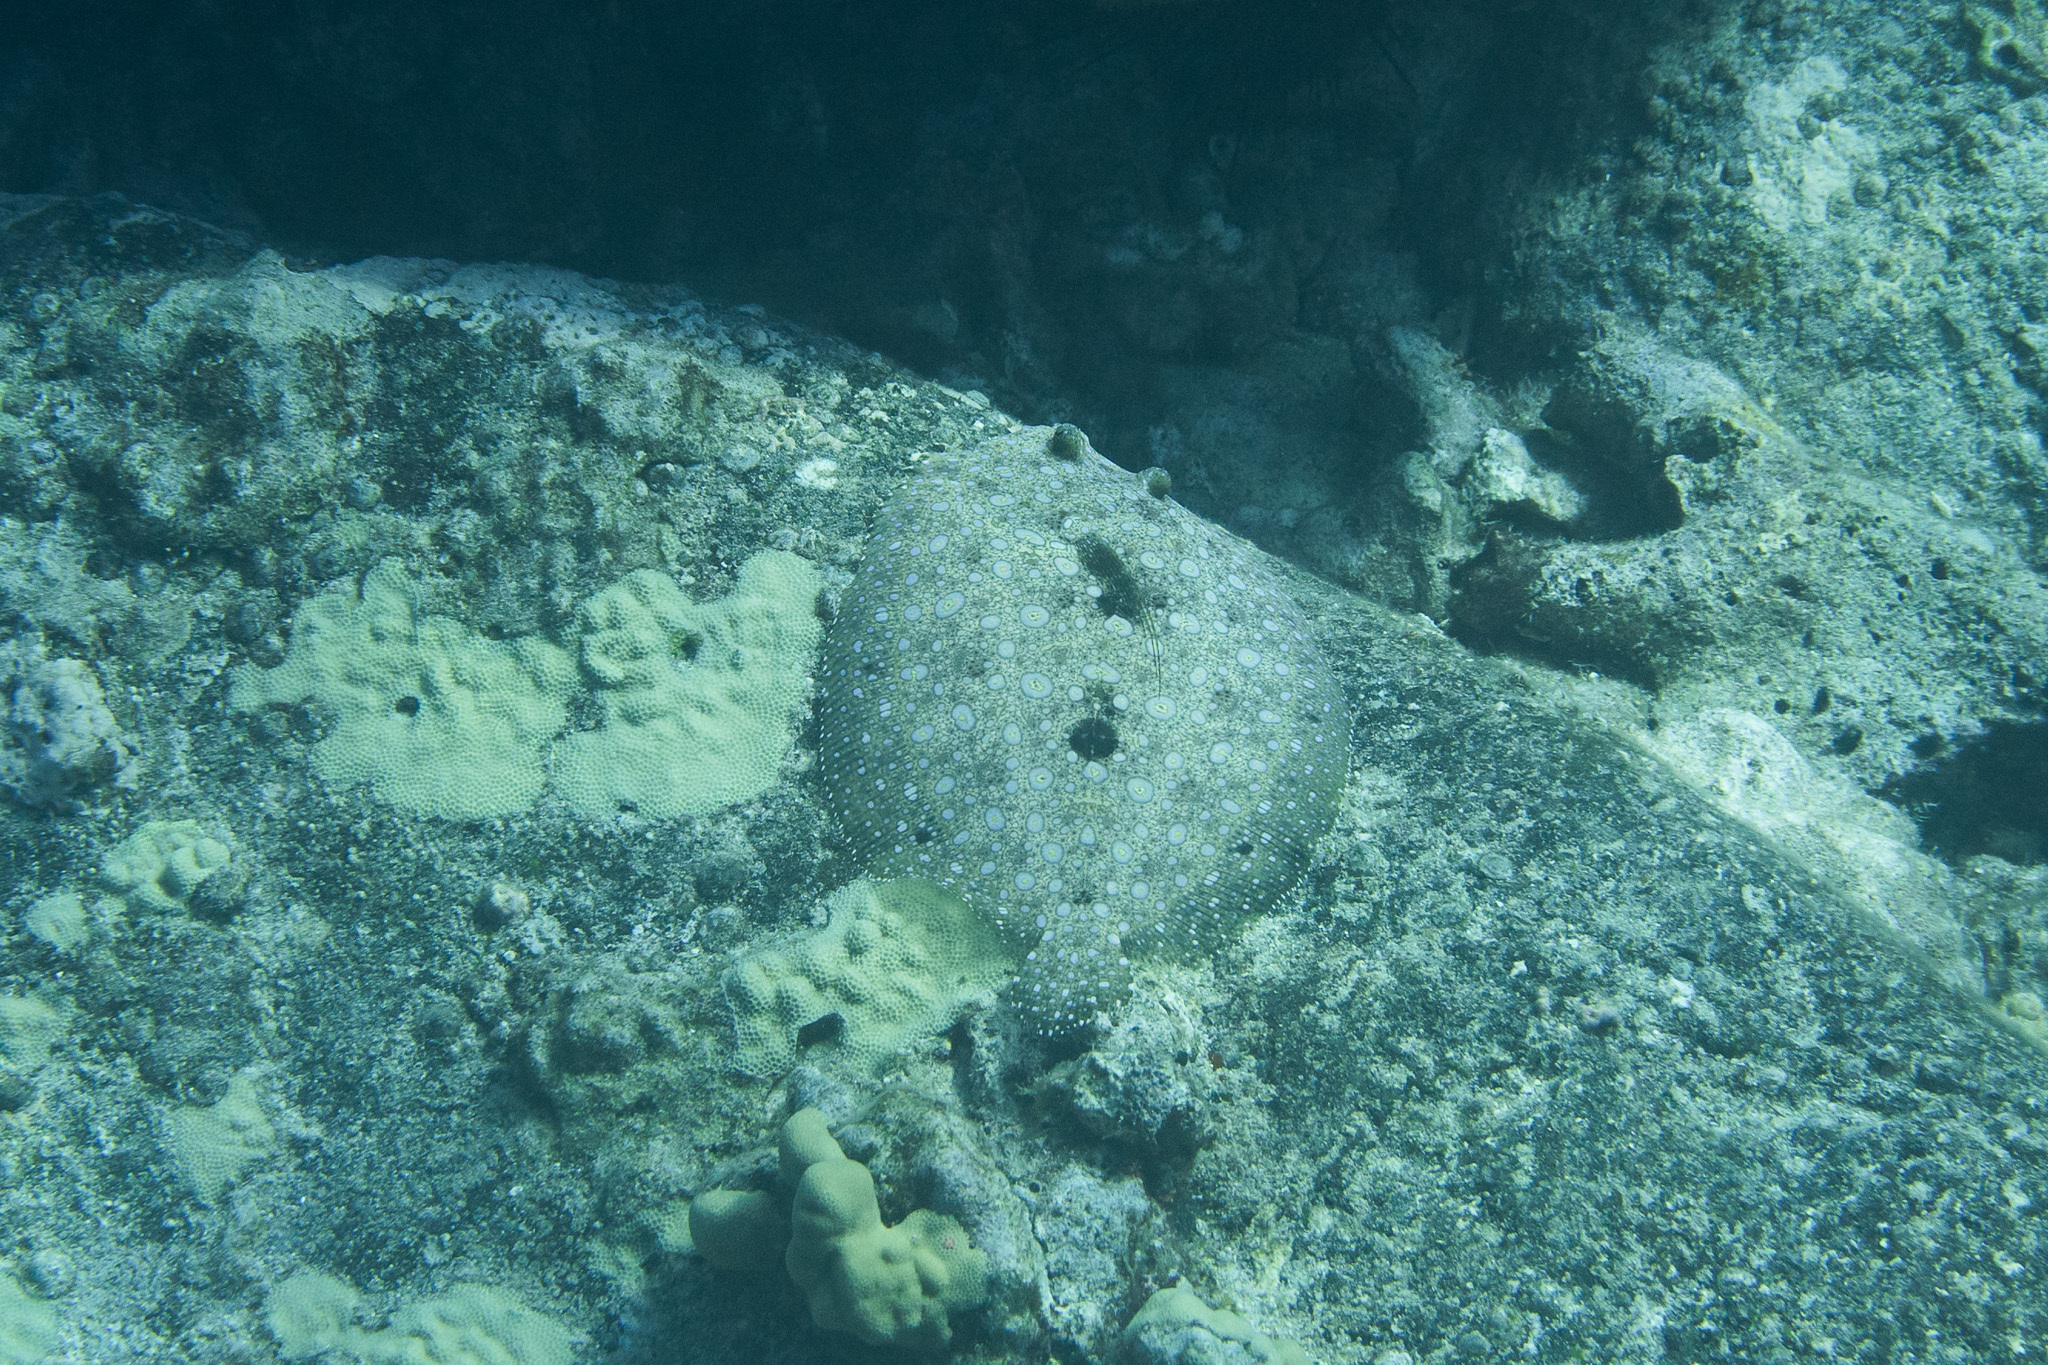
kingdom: Animalia
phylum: Chordata
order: Pleuronectiformes
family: Bothidae
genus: Bothus
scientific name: Bothus mancus
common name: Flowery flounder
